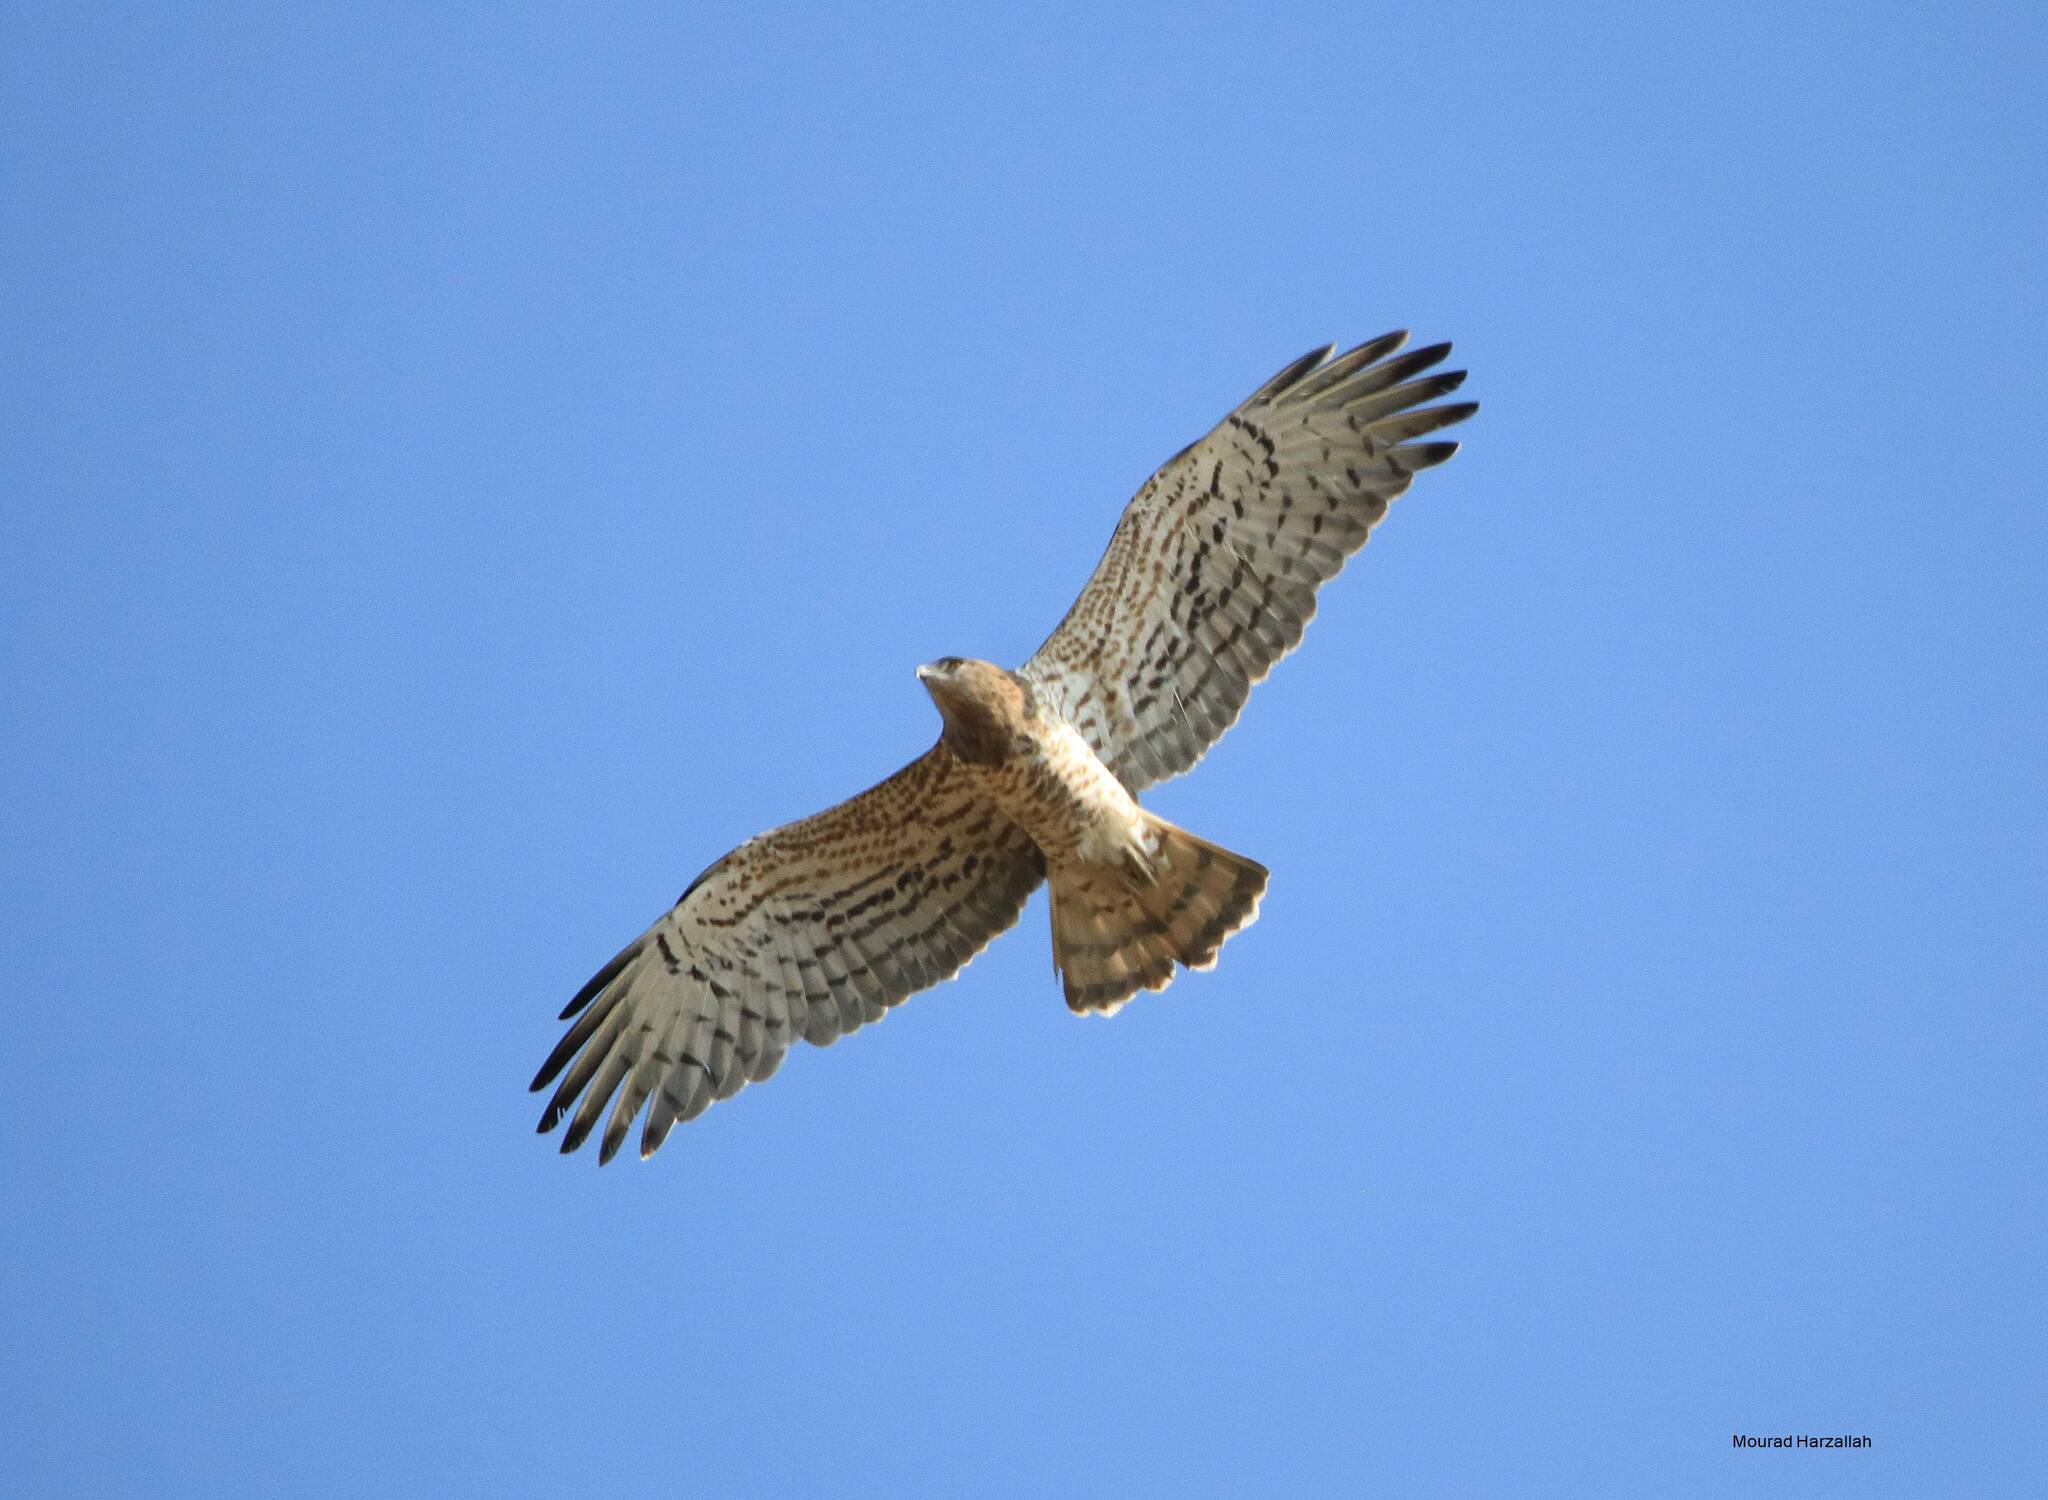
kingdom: Animalia
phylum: Chordata
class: Aves
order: Accipitriformes
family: Accipitridae
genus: Circaetus
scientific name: Circaetus gallicus
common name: Short-toed snake eagle
